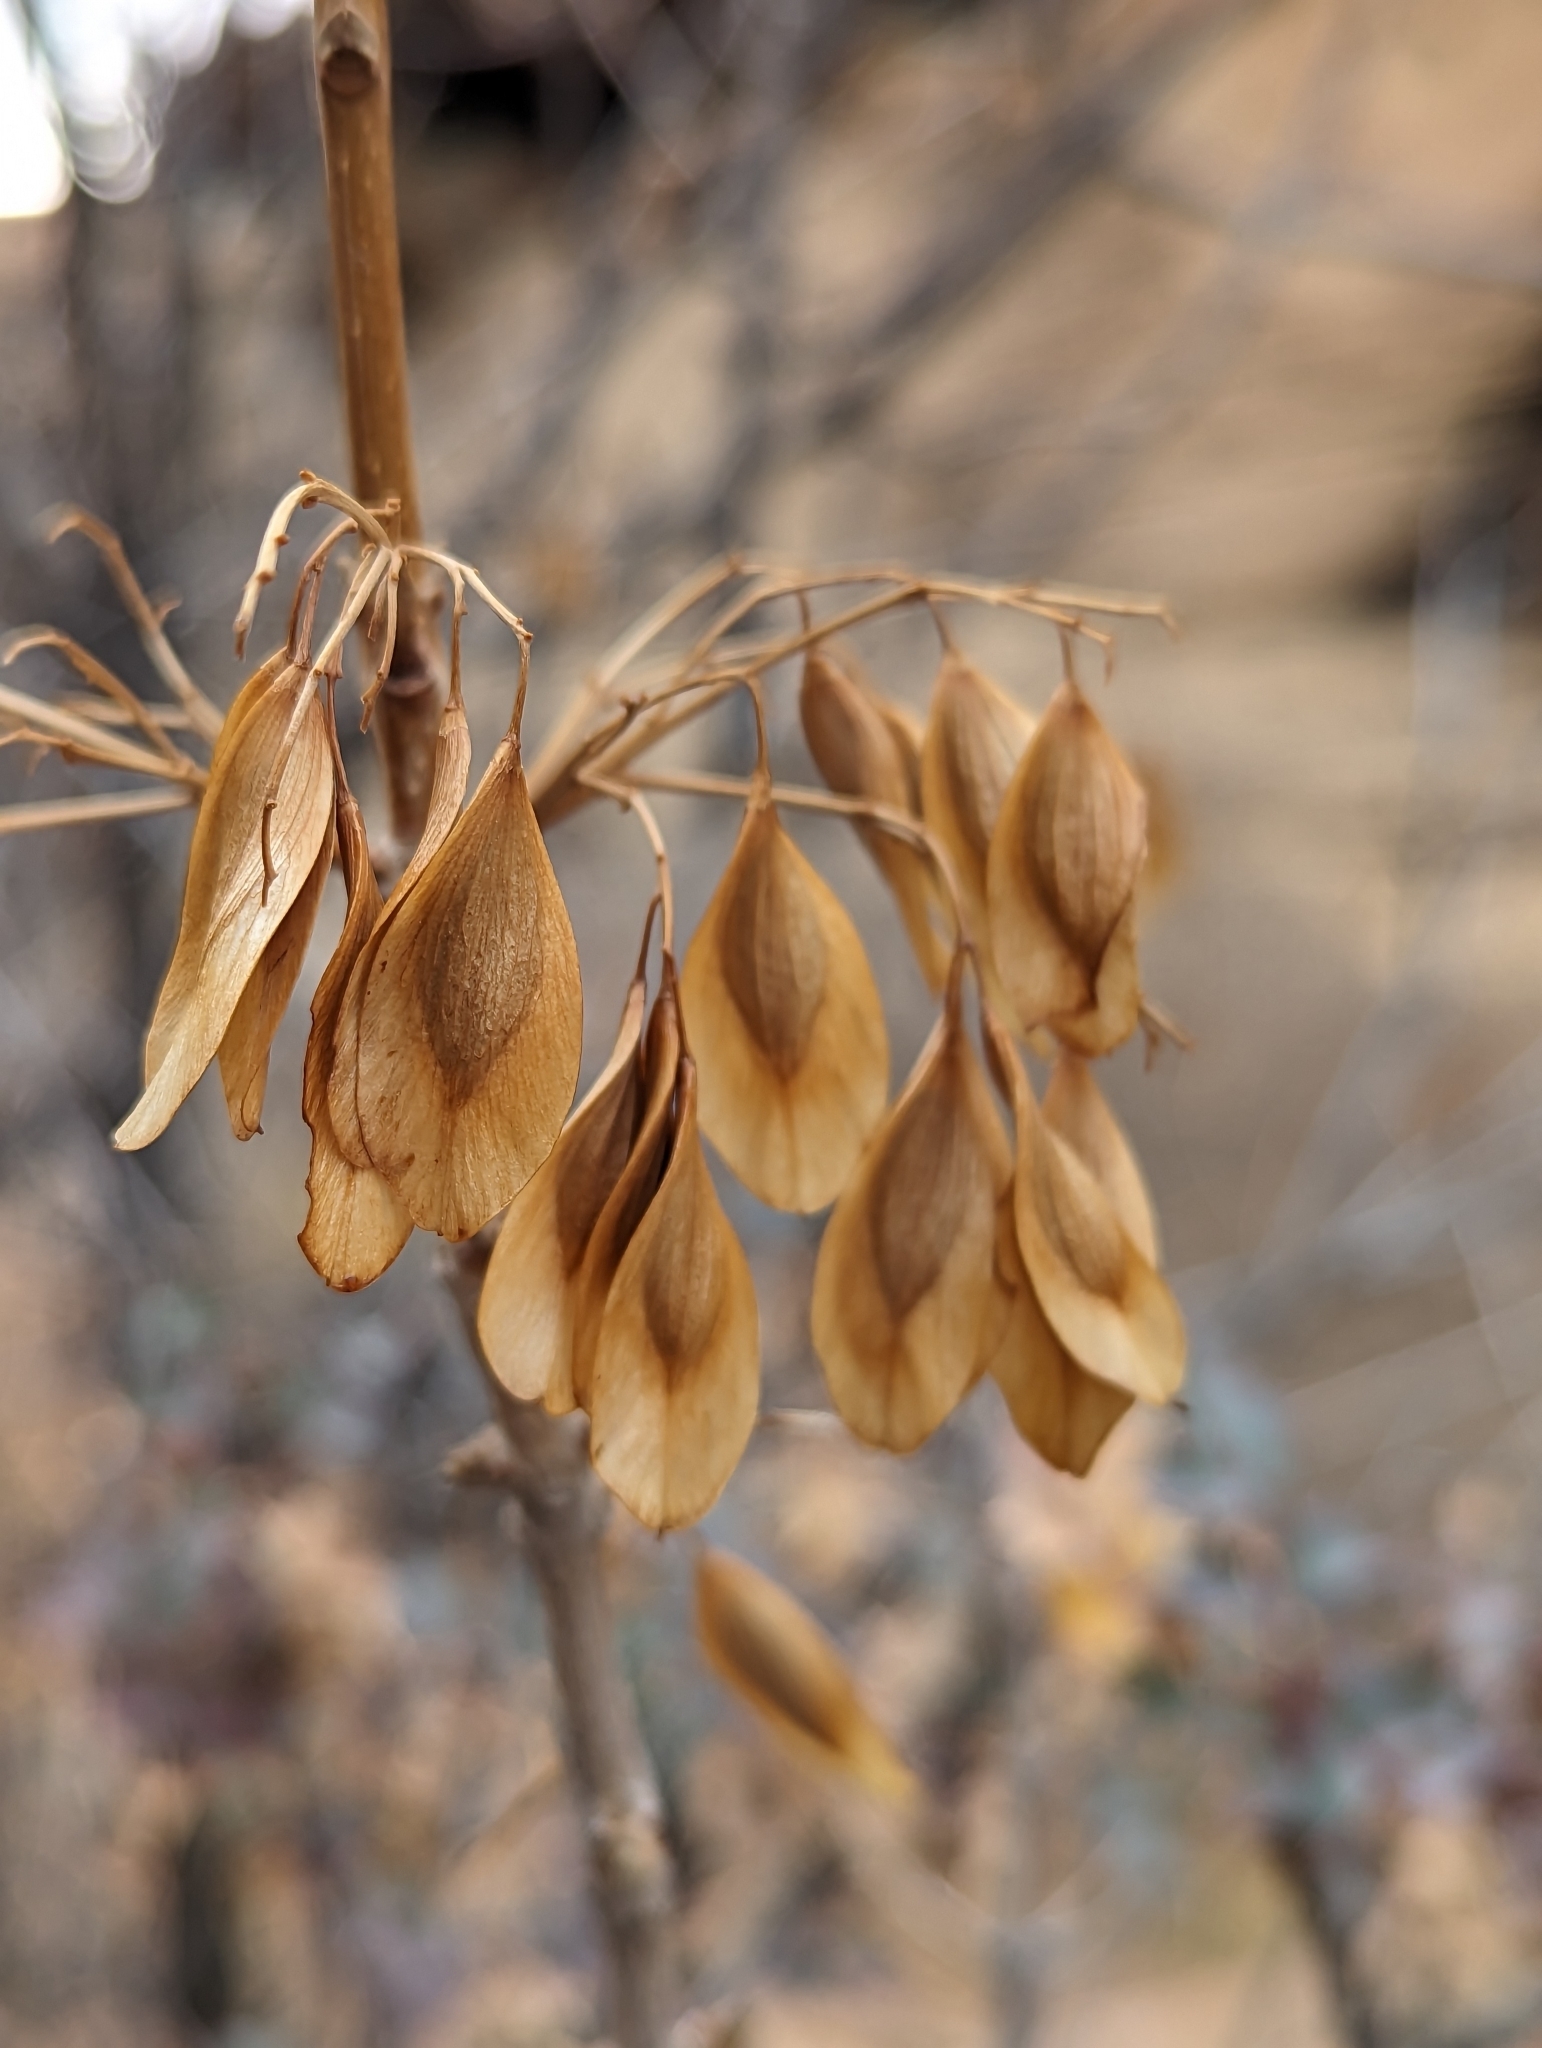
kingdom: Plantae
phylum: Tracheophyta
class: Magnoliopsida
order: Lamiales
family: Oleaceae
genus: Fraxinus
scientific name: Fraxinus anomala
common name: Utah ash
